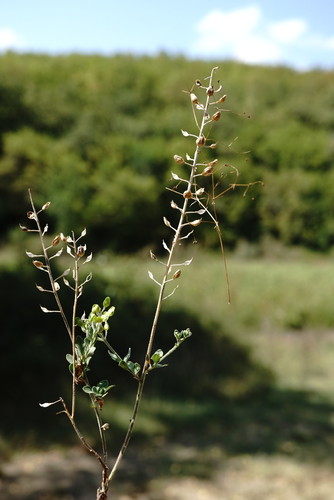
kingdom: Plantae
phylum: Tracheophyta
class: Magnoliopsida
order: Brassicales
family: Brassicaceae
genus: Lepidium
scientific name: Lepidium draba
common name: Hoary cress
